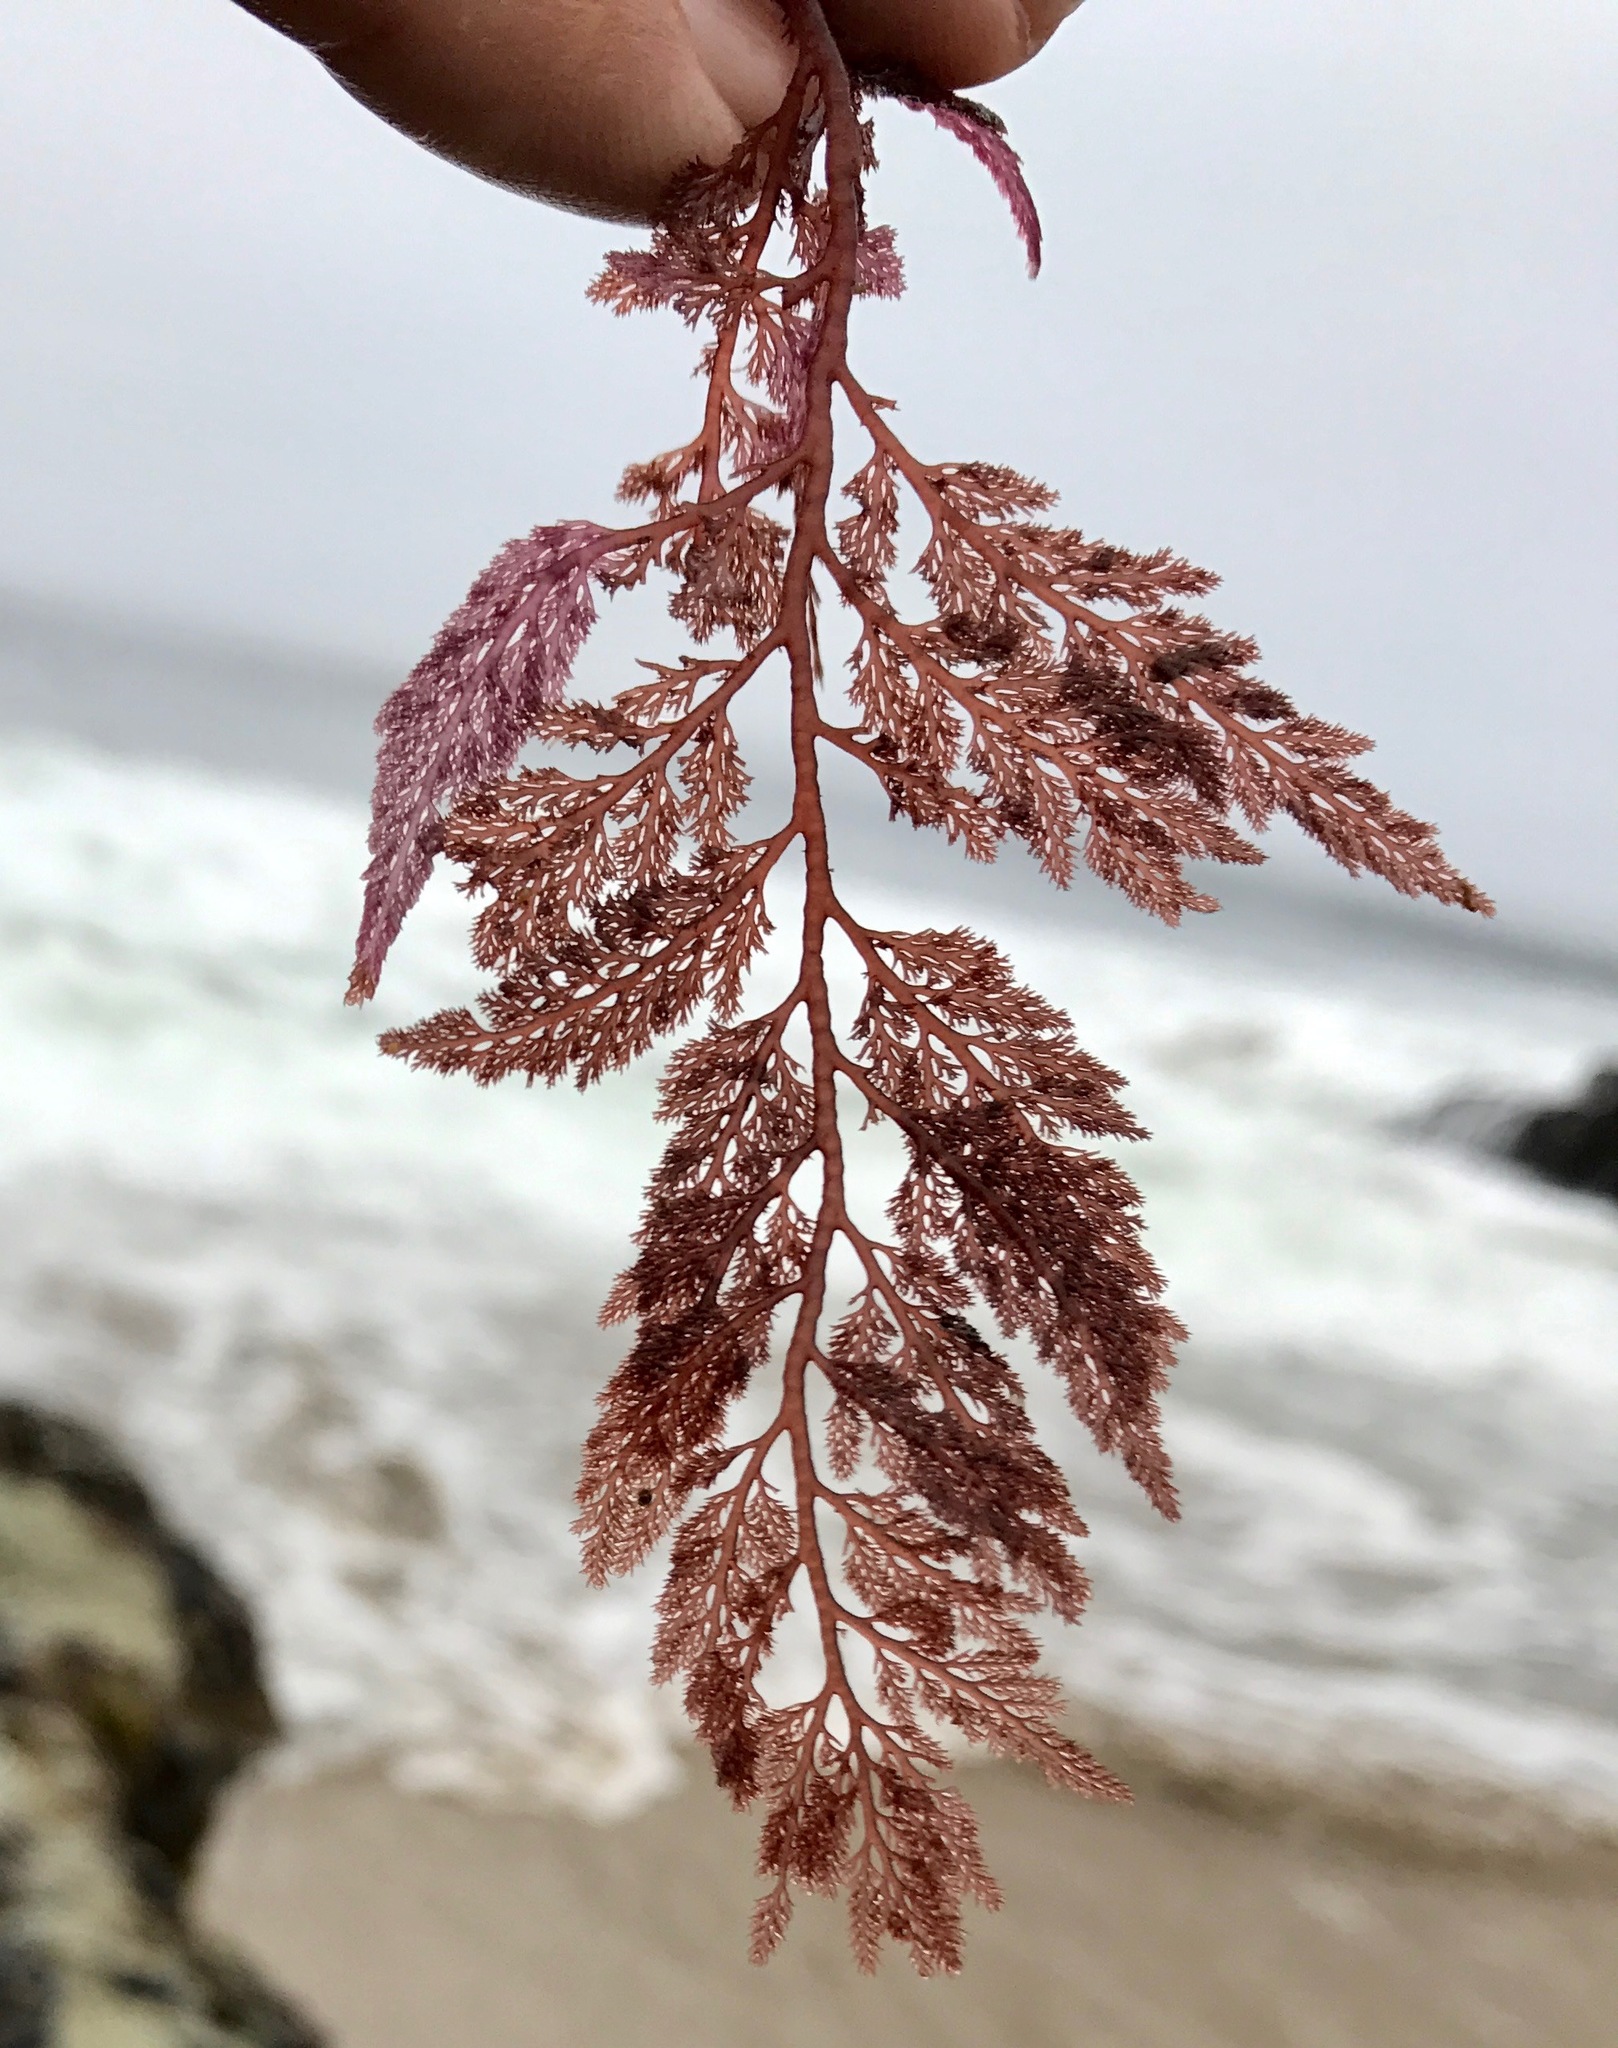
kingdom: Plantae
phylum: Rhodophyta
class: Florideophyceae
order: Ceramiales
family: Ceramiaceae
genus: Microcladia
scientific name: Microcladia coulteri
